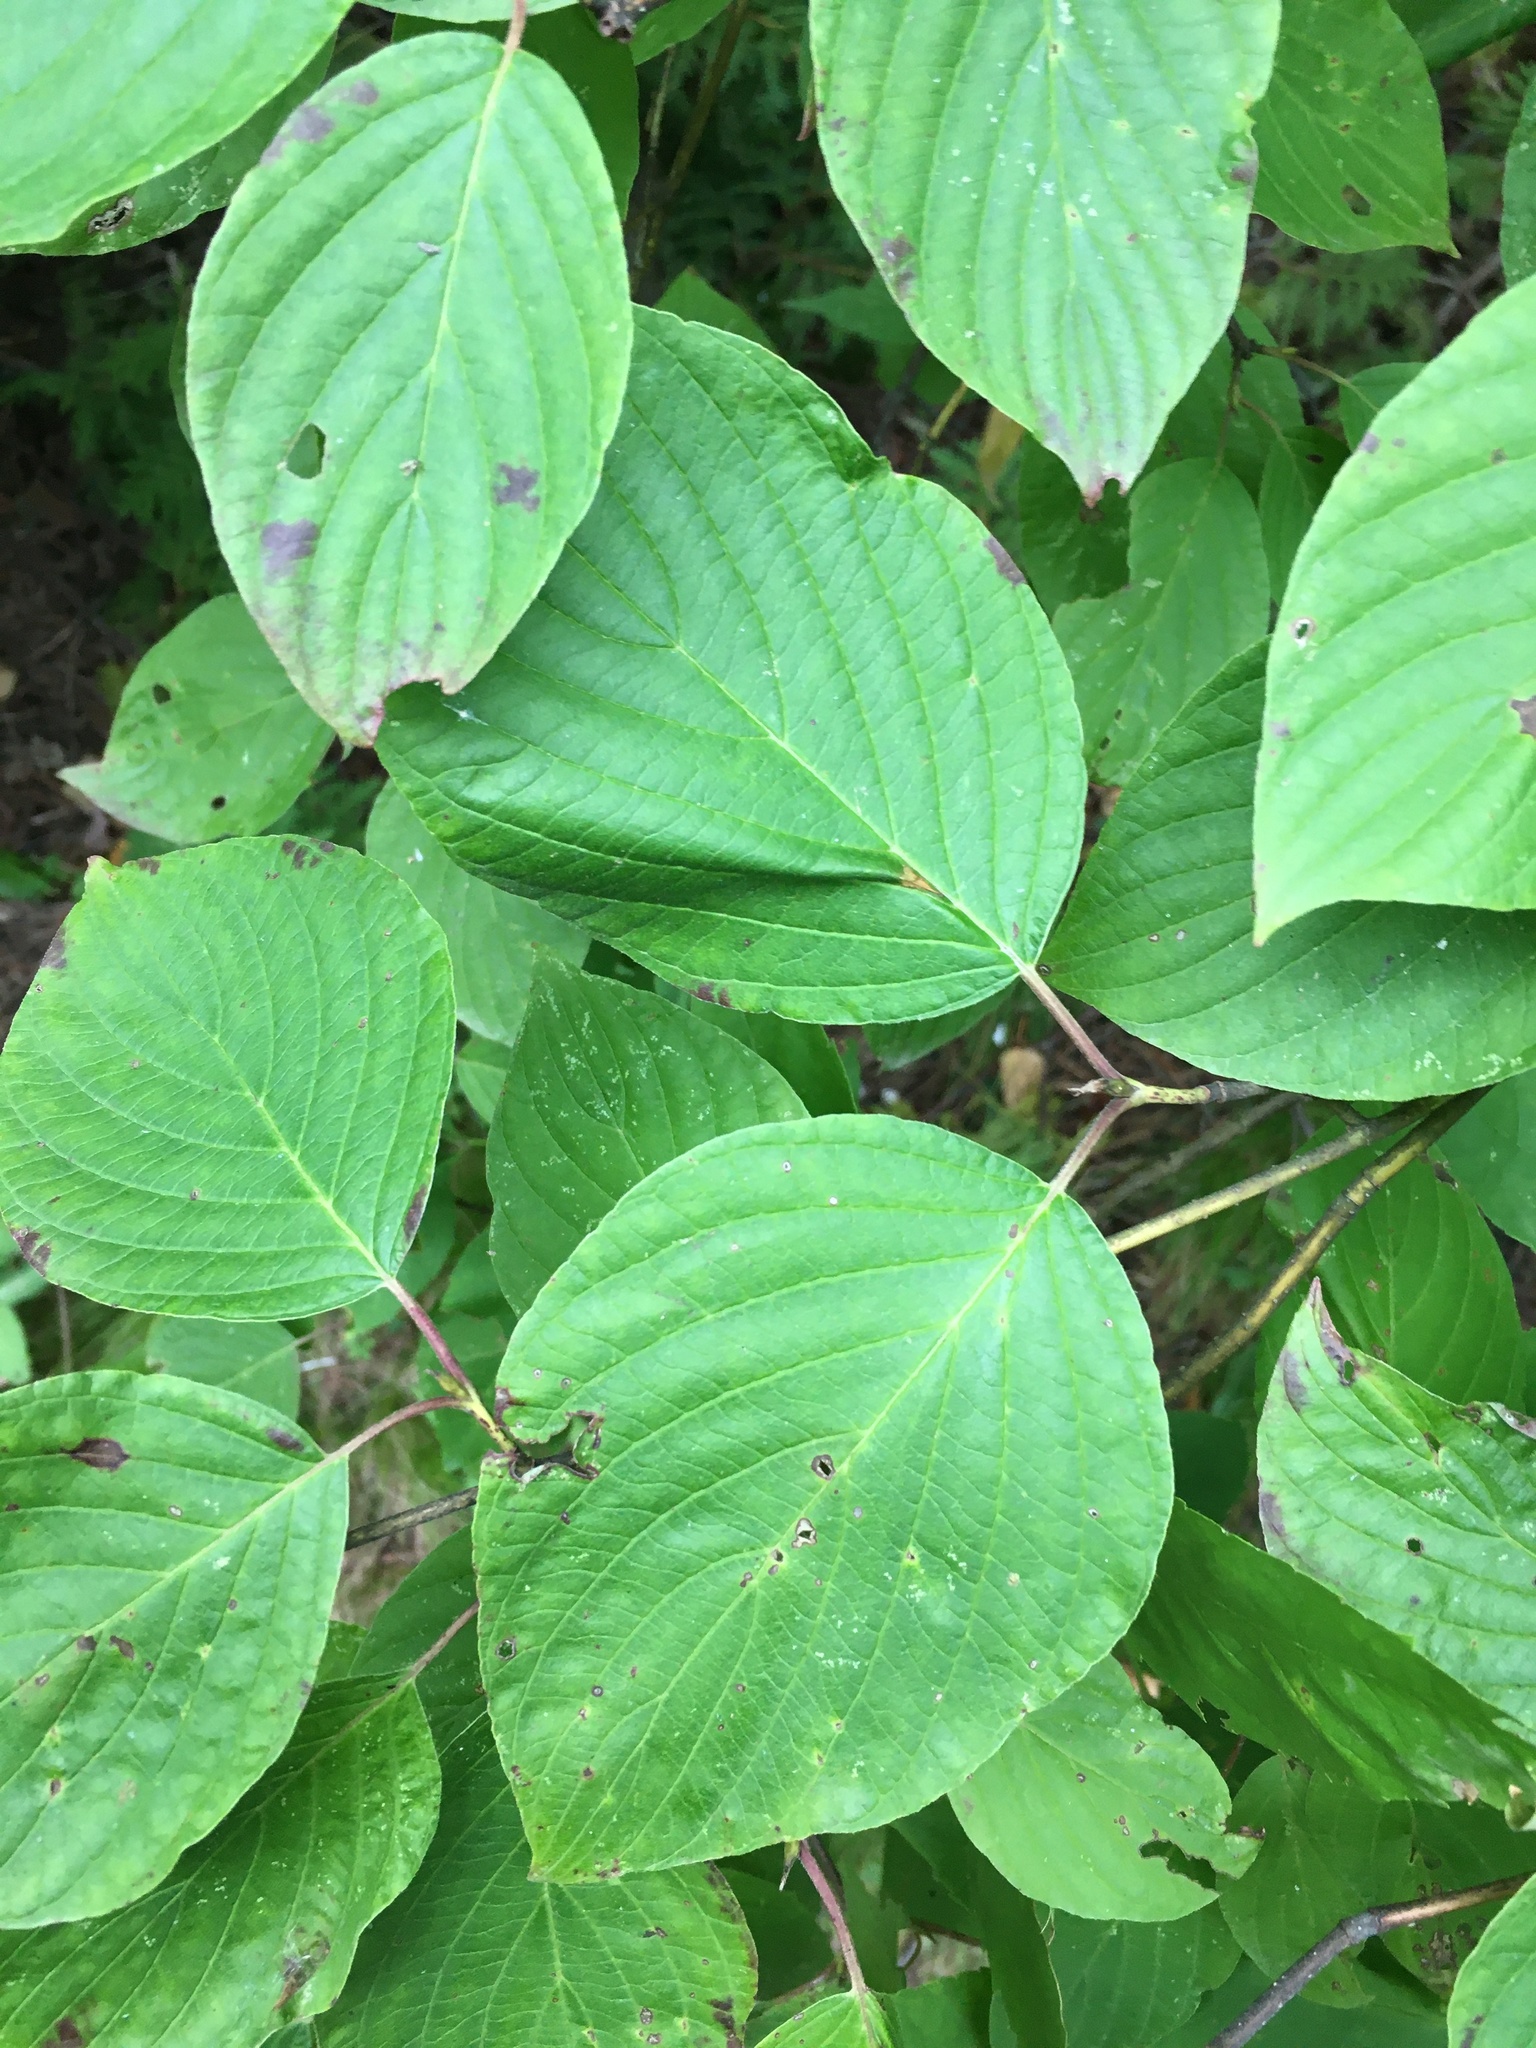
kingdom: Plantae
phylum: Tracheophyta
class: Magnoliopsida
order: Cornales
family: Cornaceae
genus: Cornus
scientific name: Cornus rugosa
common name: Round-leaf dogwood
